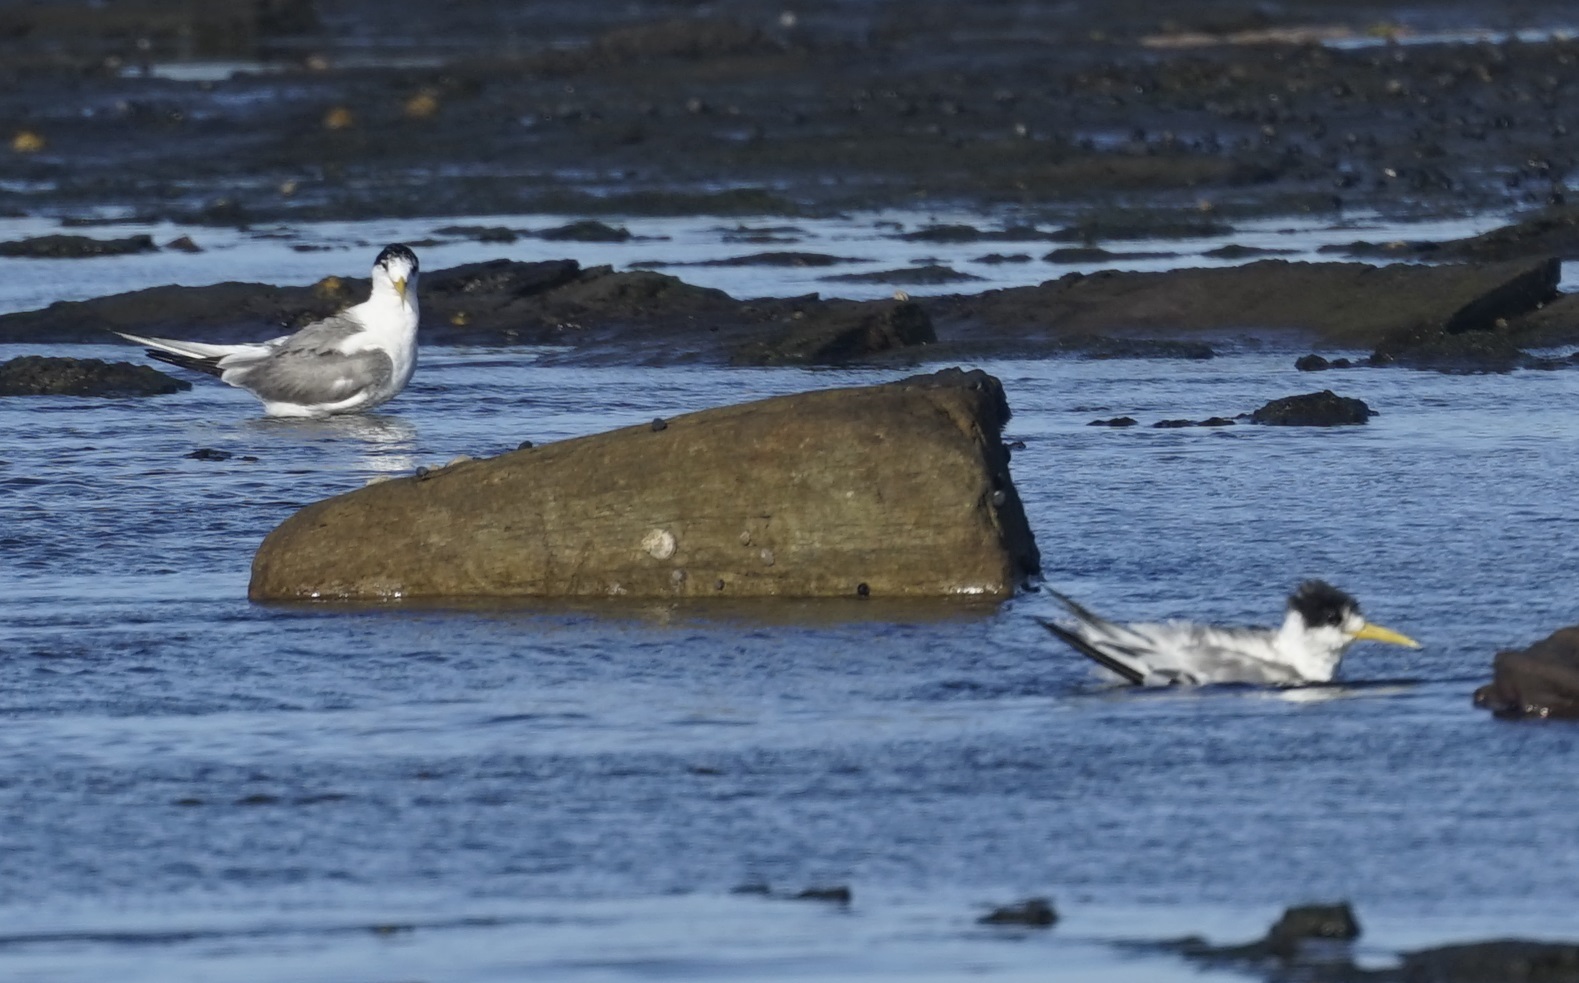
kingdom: Animalia
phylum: Chordata
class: Aves
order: Charadriiformes
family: Laridae
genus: Thalasseus
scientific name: Thalasseus bergii
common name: Greater crested tern
